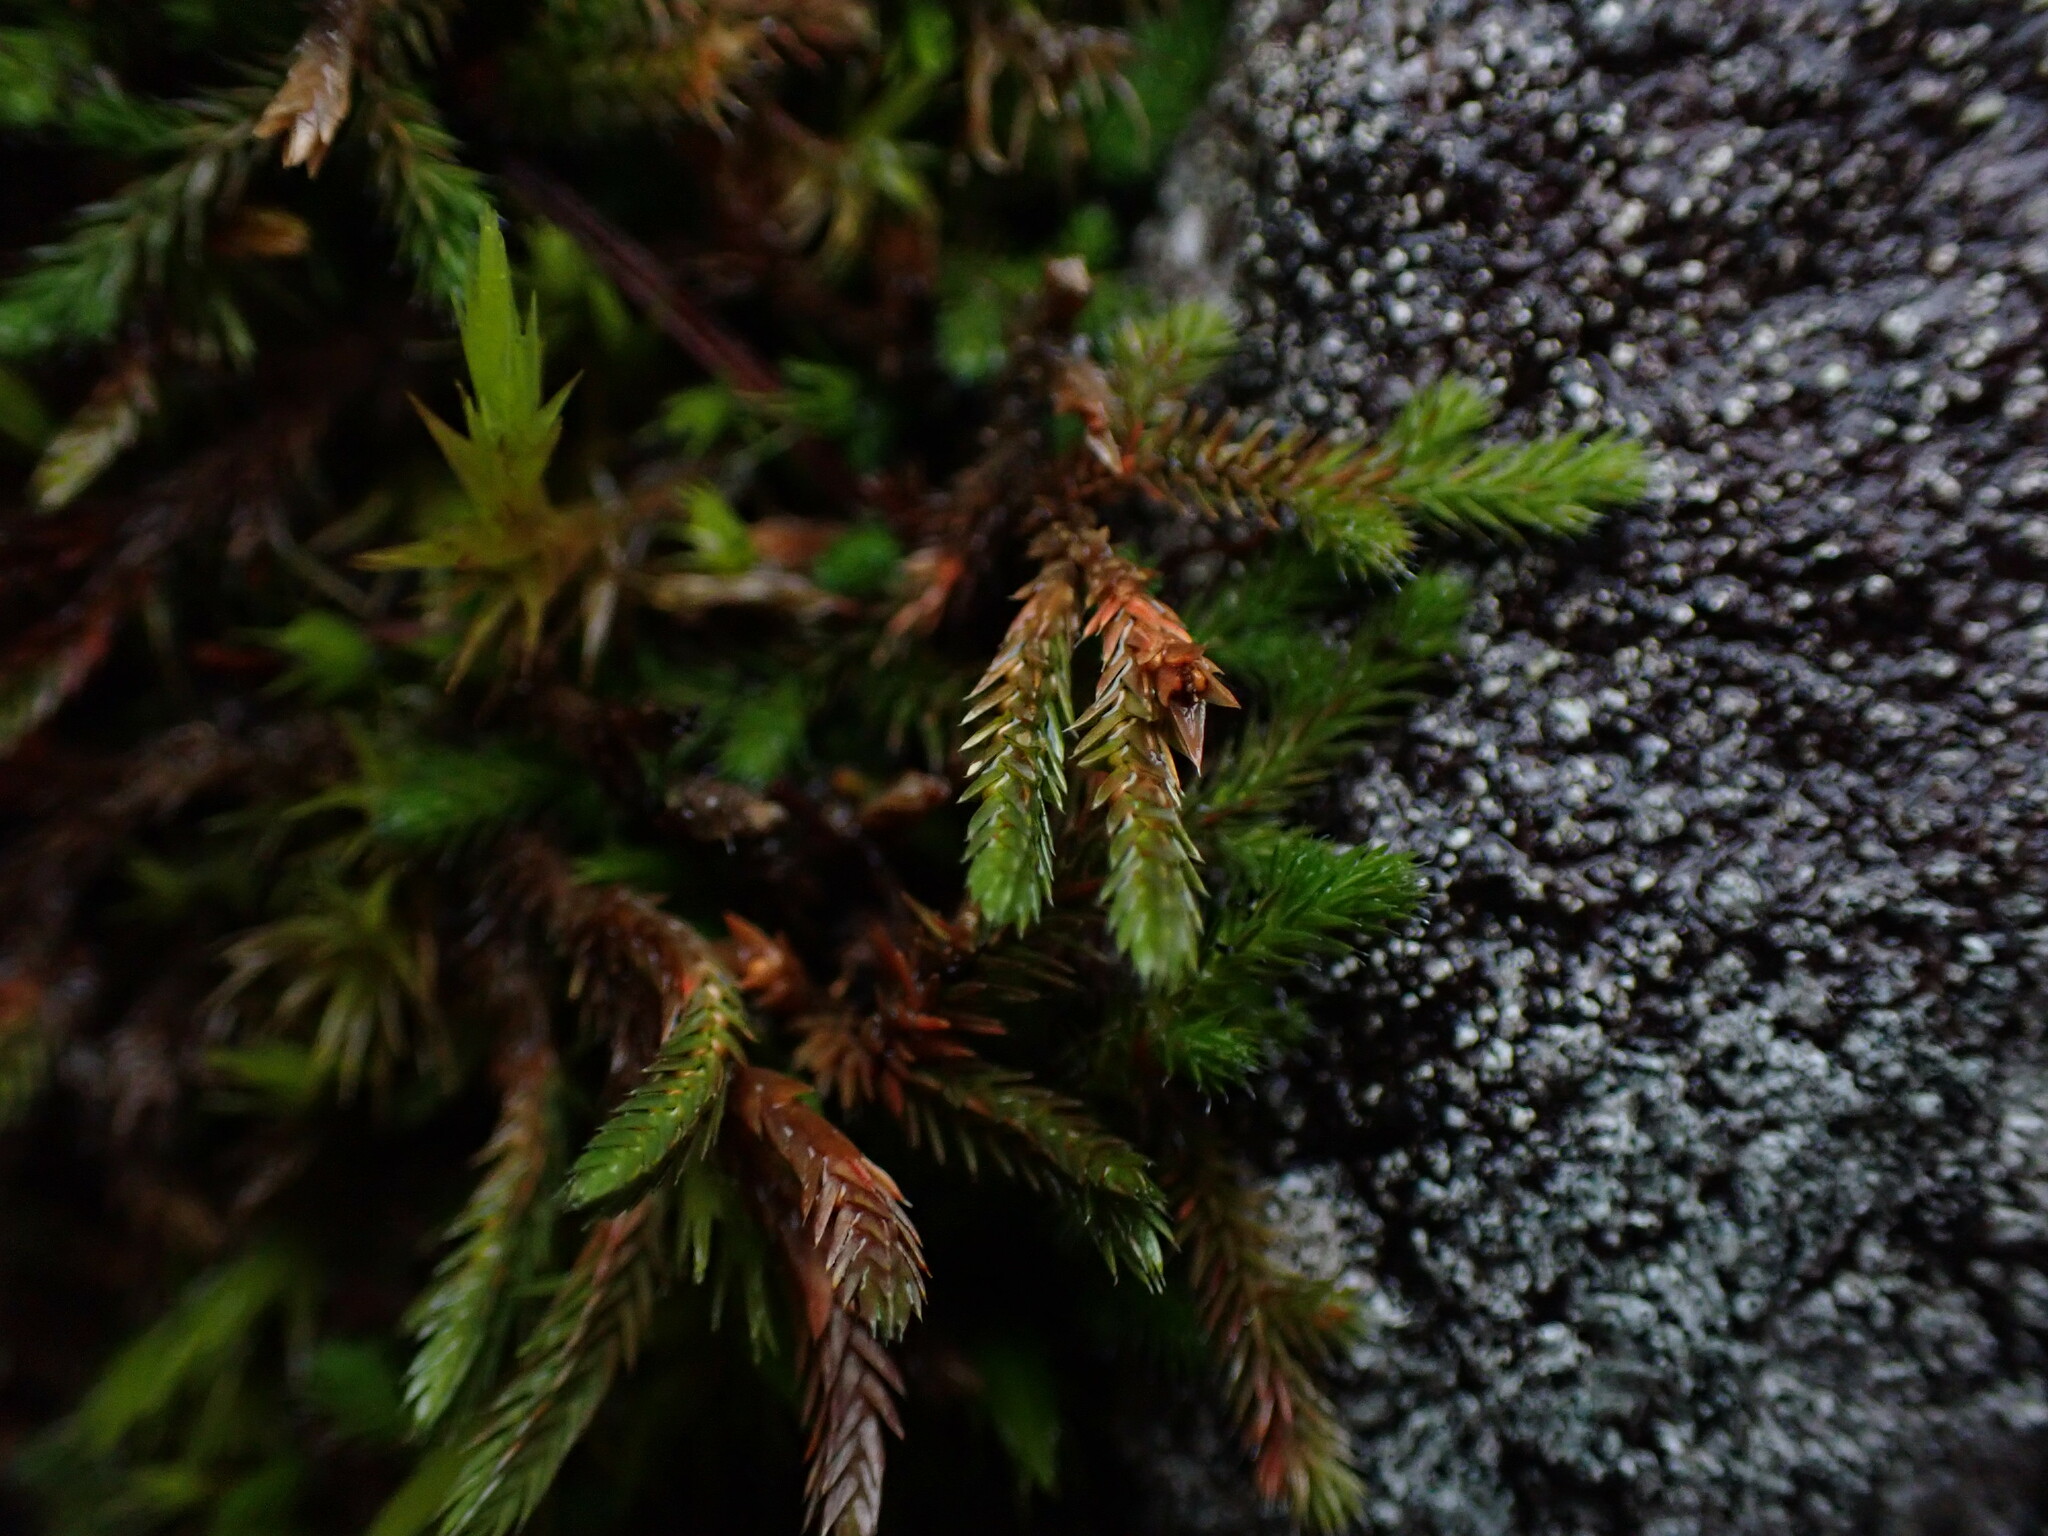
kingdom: Plantae
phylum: Tracheophyta
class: Lycopodiopsida
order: Selaginellales
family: Selaginellaceae
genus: Selaginella
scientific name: Selaginella wallacei
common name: Wallace's selaginella
